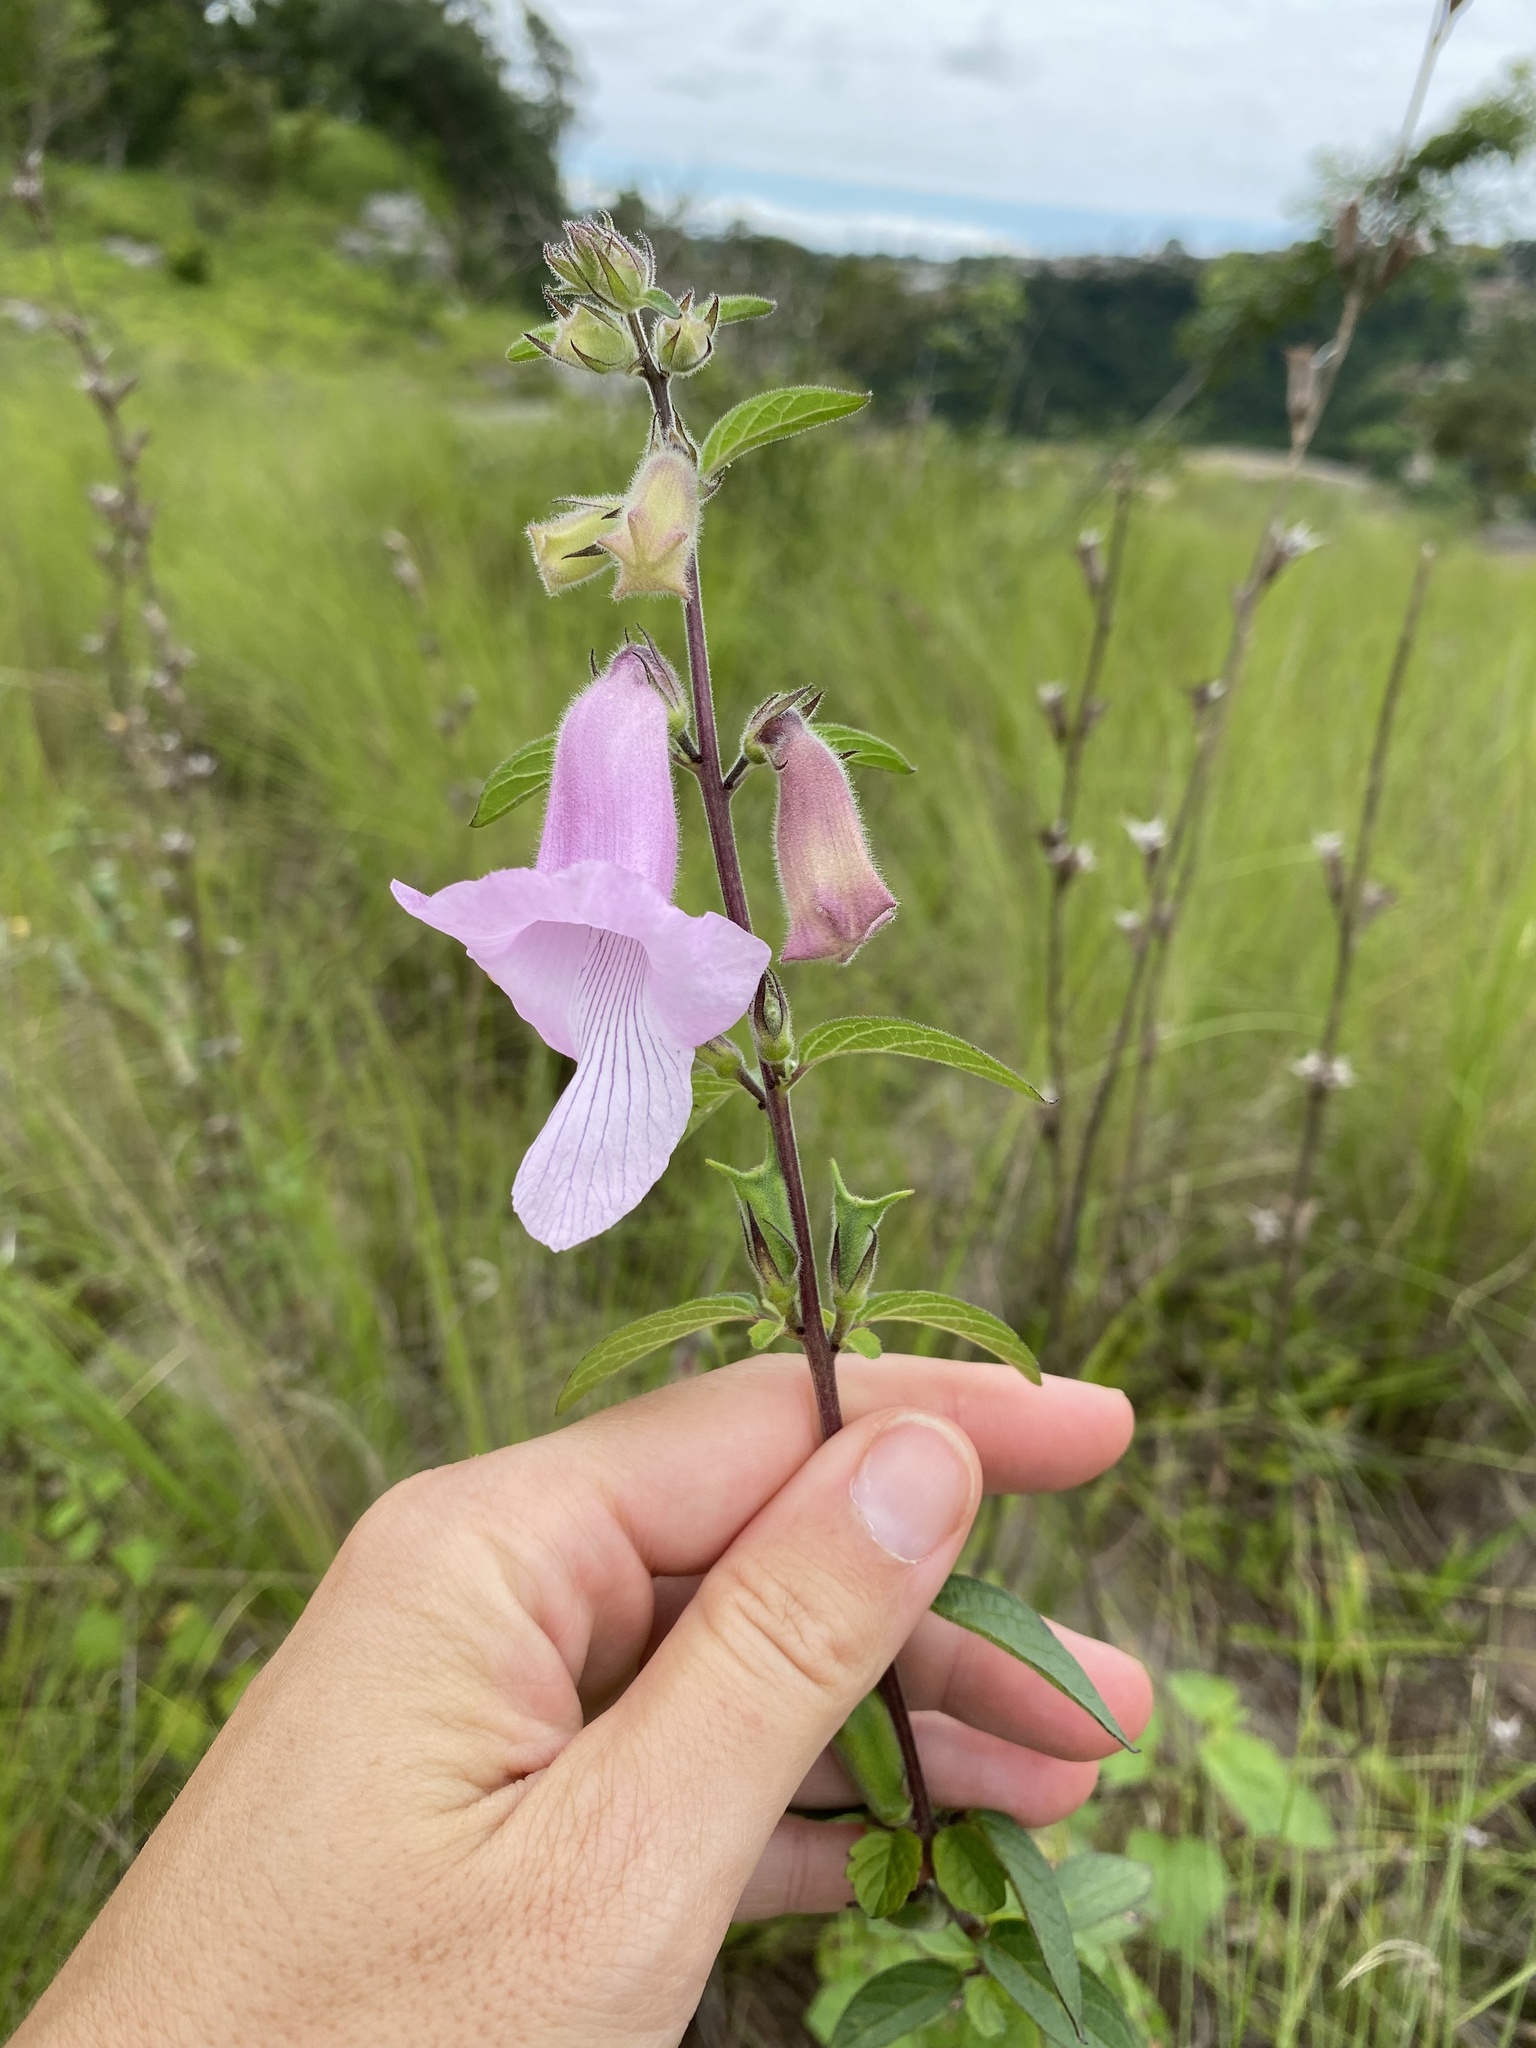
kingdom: Plantae
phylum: Tracheophyta
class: Magnoliopsida
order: Lamiales
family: Pedaliaceae
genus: Sesamum
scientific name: Sesamum trilobum
